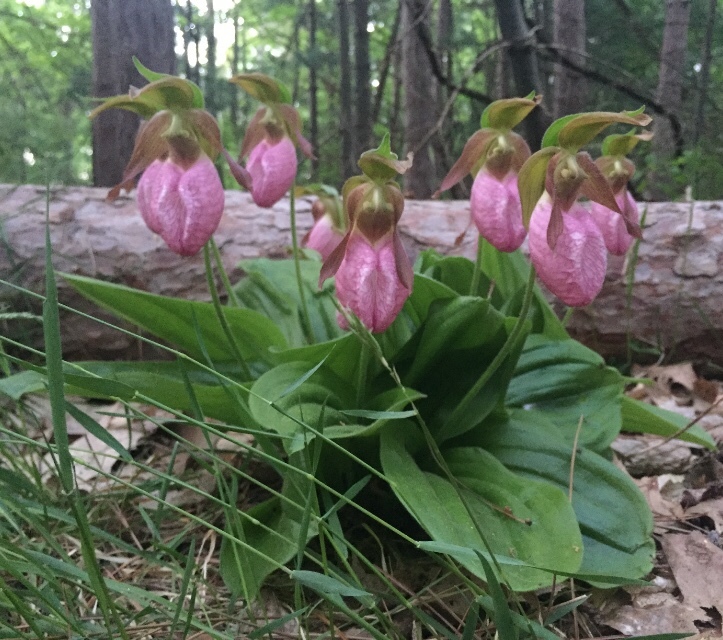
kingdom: Plantae
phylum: Tracheophyta
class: Liliopsida
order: Asparagales
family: Orchidaceae
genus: Cypripedium
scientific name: Cypripedium acaule
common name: Pink lady's-slipper
